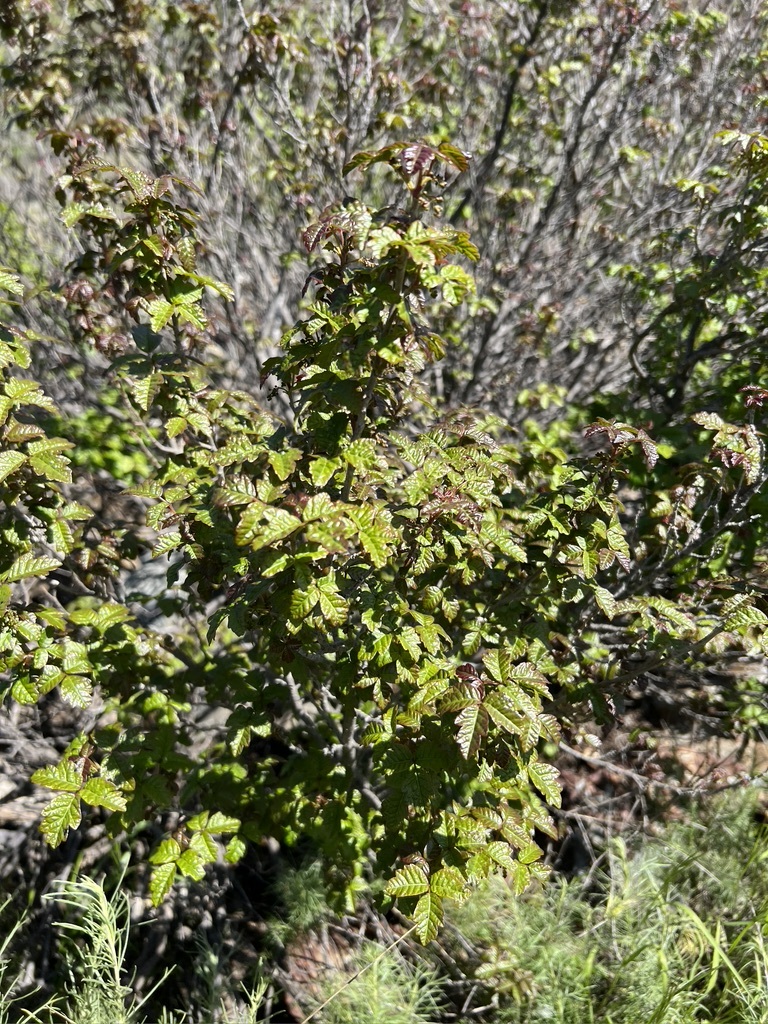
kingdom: Plantae
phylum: Tracheophyta
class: Magnoliopsida
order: Sapindales
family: Anacardiaceae
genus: Toxicodendron
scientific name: Toxicodendron diversilobum
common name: Pacific poison-oak
